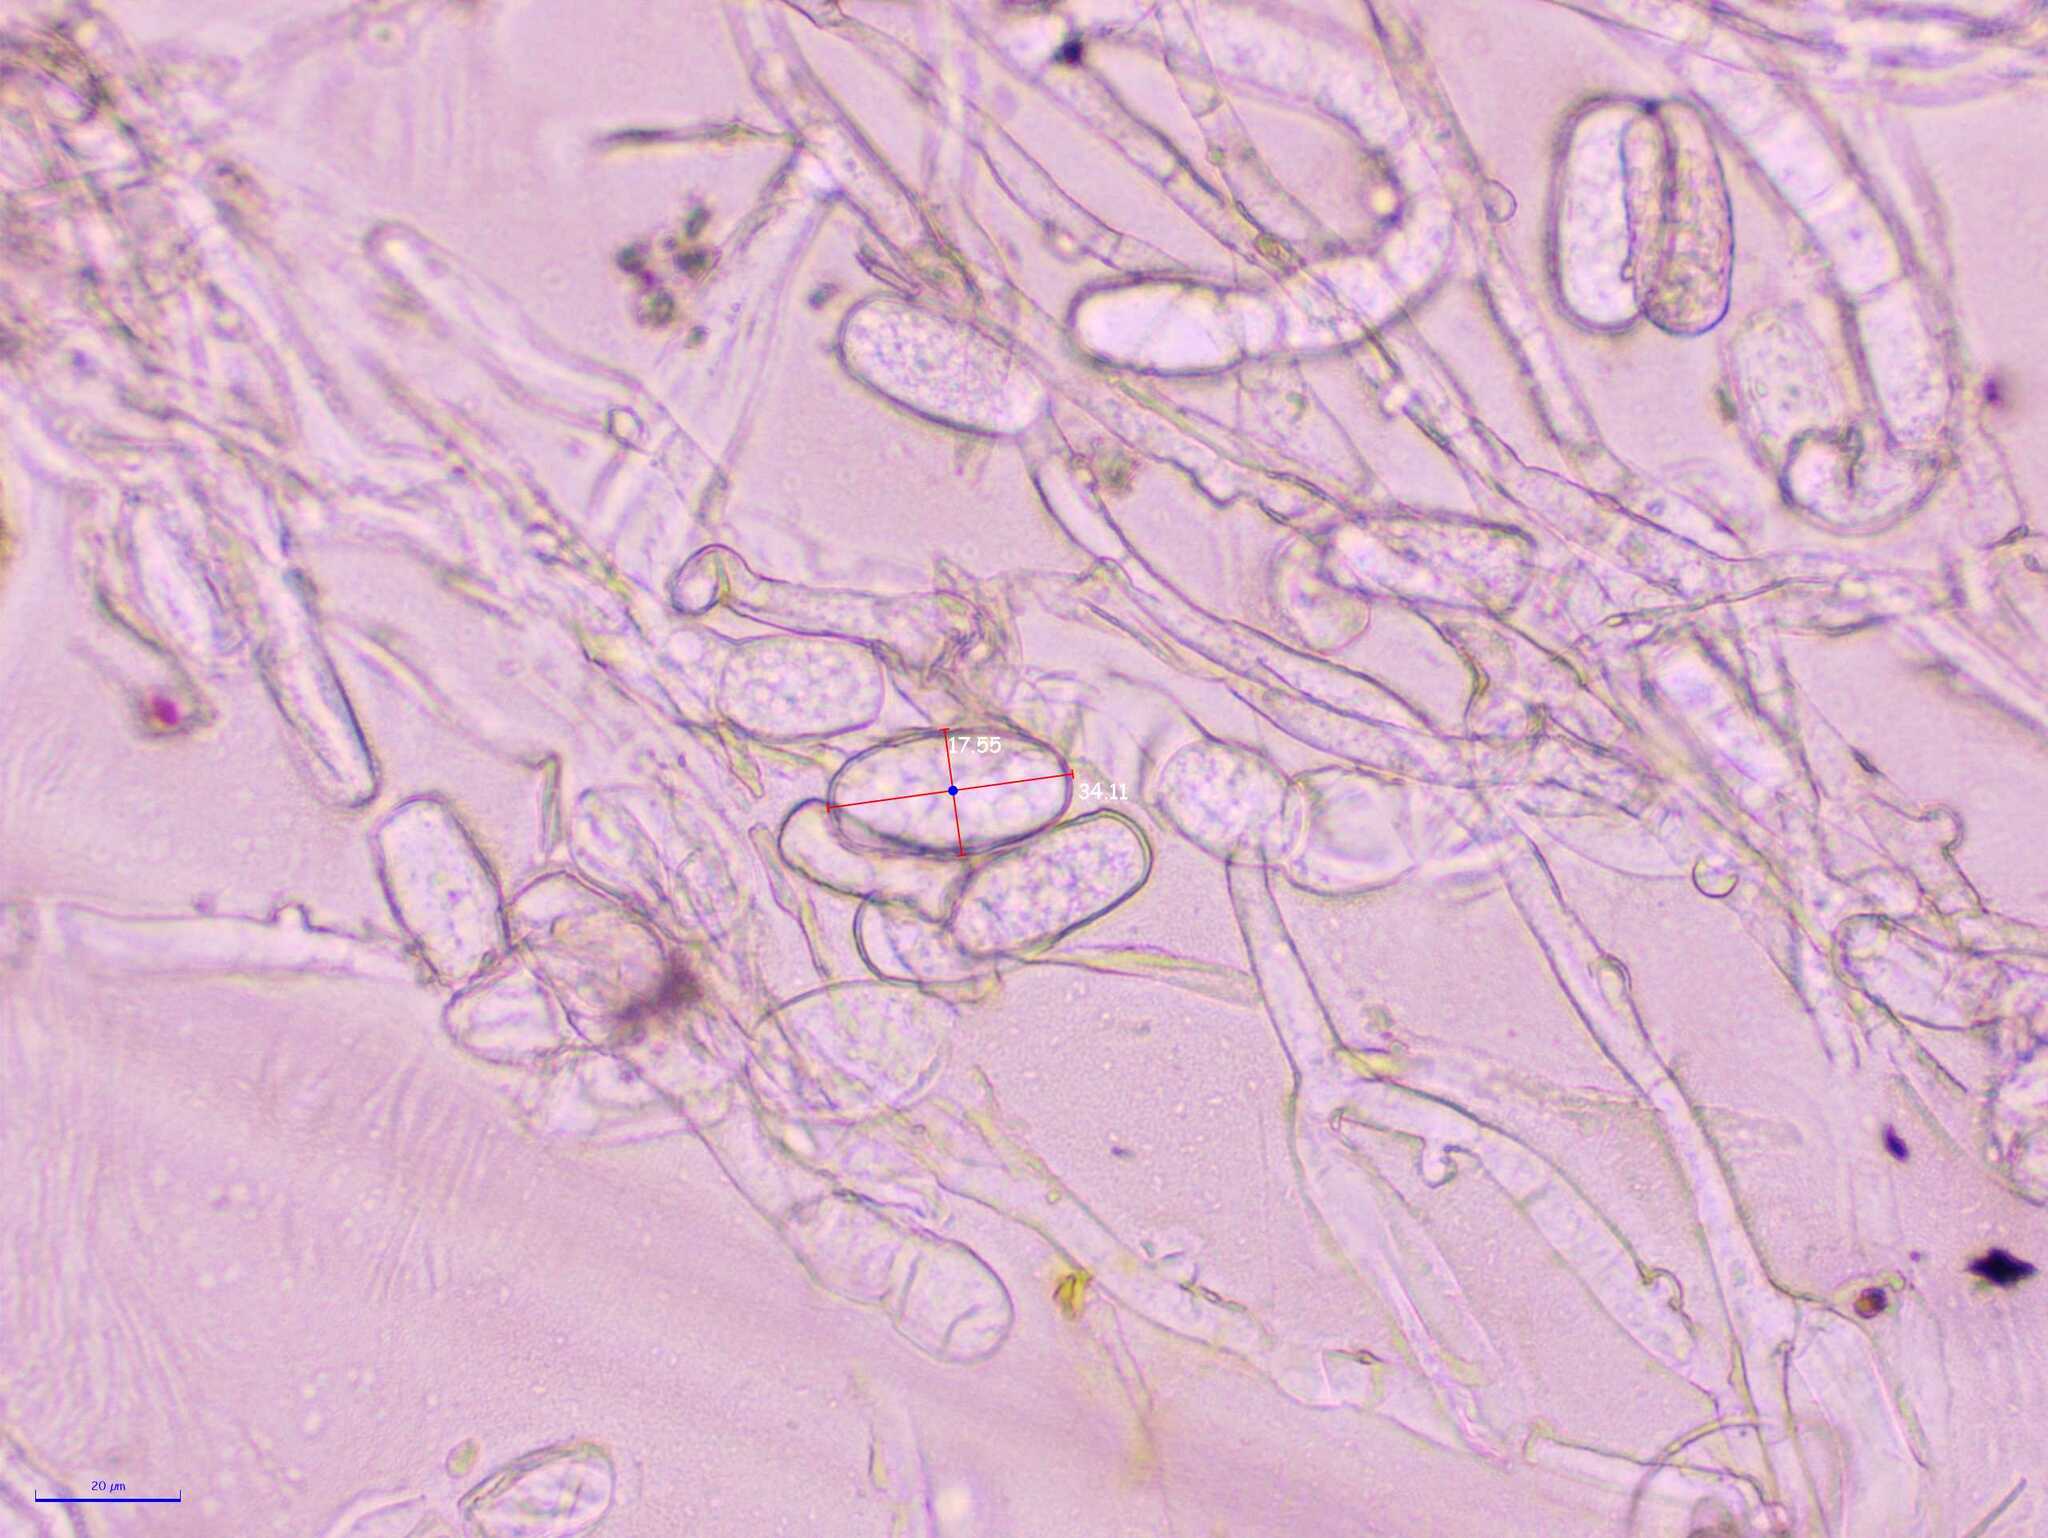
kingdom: Fungi
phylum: Ascomycota
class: Leotiomycetes
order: Helotiales
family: Erysiphaceae
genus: Golovinomyces
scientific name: Golovinomyces sordidus
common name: Plantain mildew
